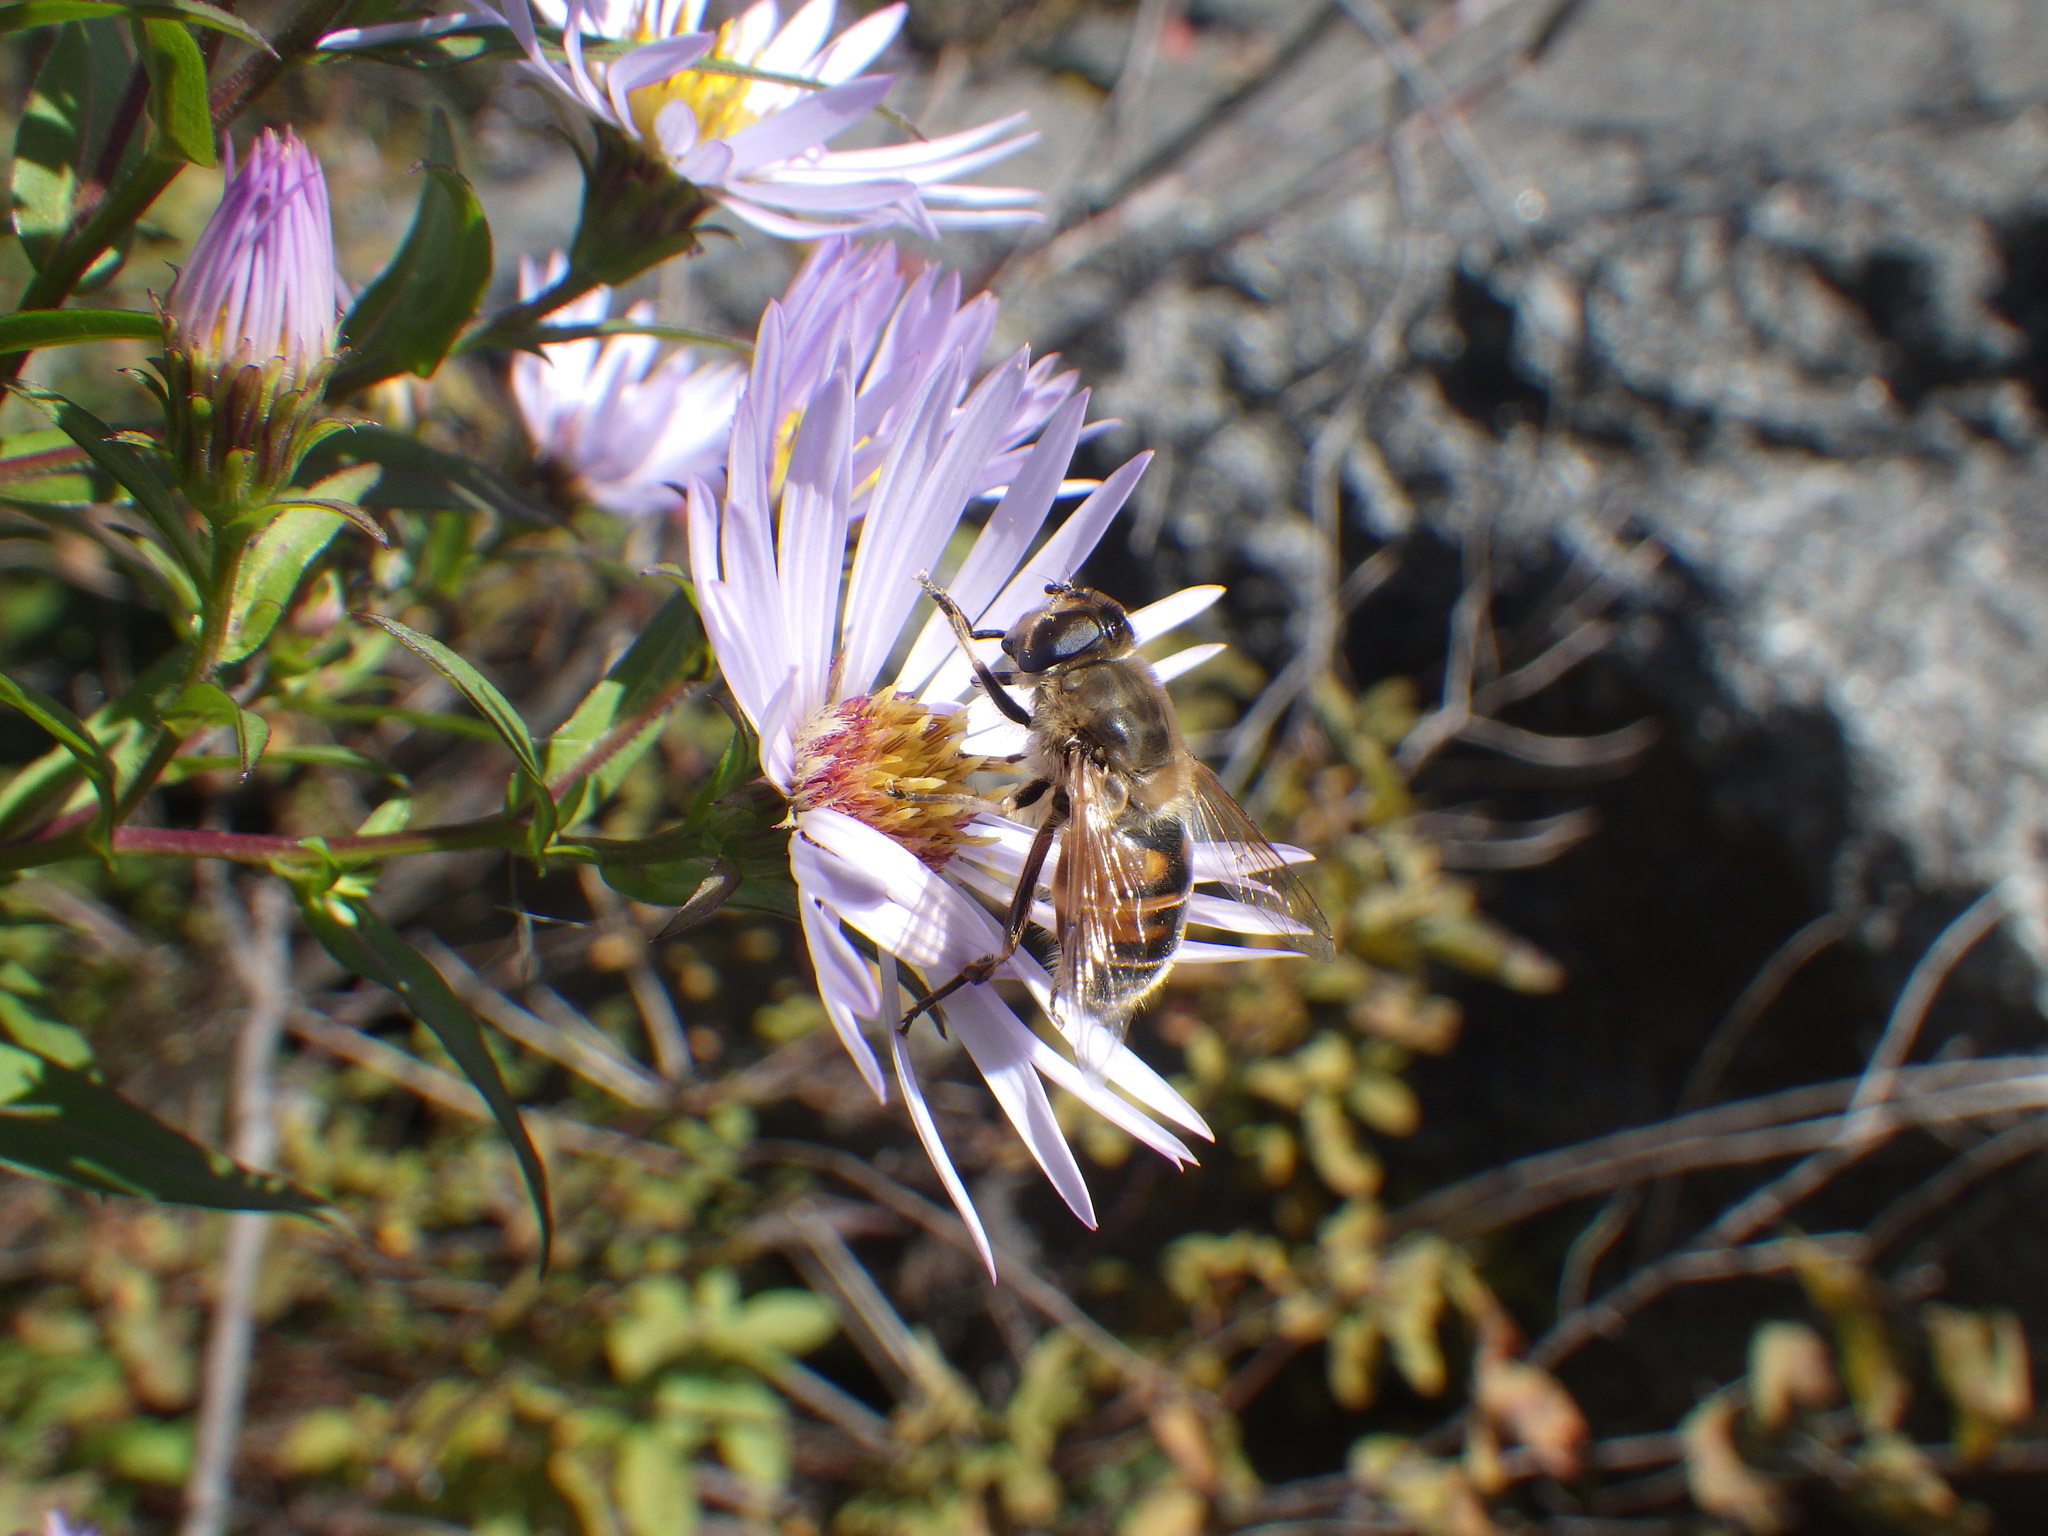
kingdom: Animalia
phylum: Arthropoda
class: Insecta
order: Diptera
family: Syrphidae
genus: Eristalis
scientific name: Eristalis tenax
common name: Drone fly
